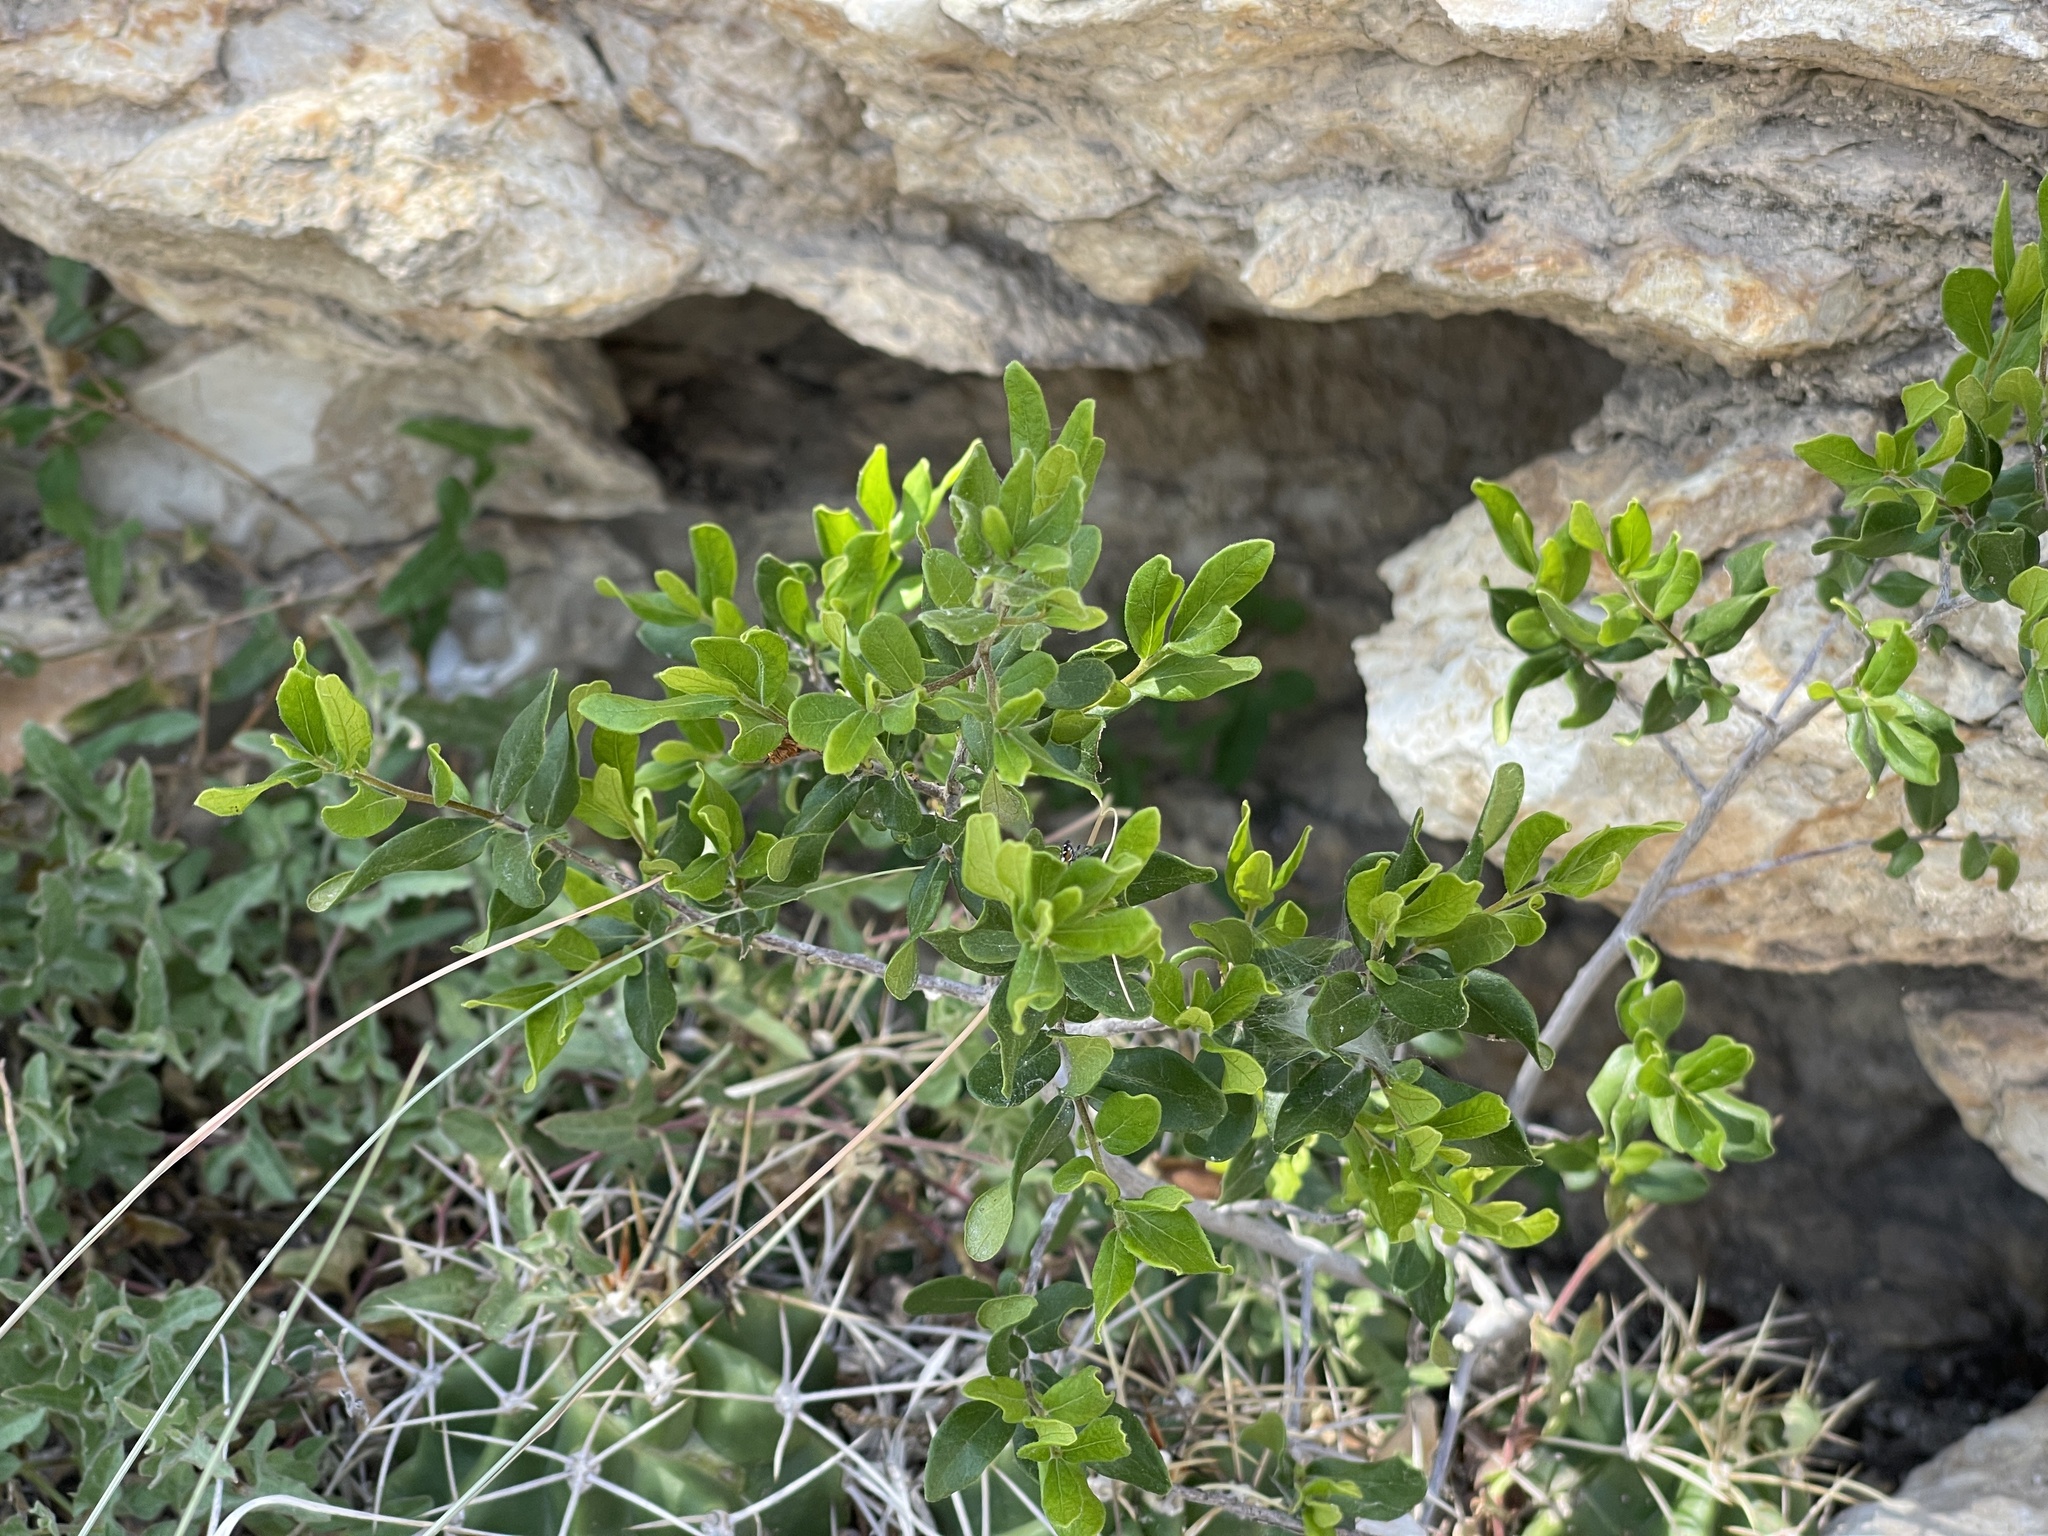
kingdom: Plantae
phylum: Tracheophyta
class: Magnoliopsida
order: Ericales
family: Ebenaceae
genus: Diospyros
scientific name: Diospyros texana
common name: Texas persimmon
